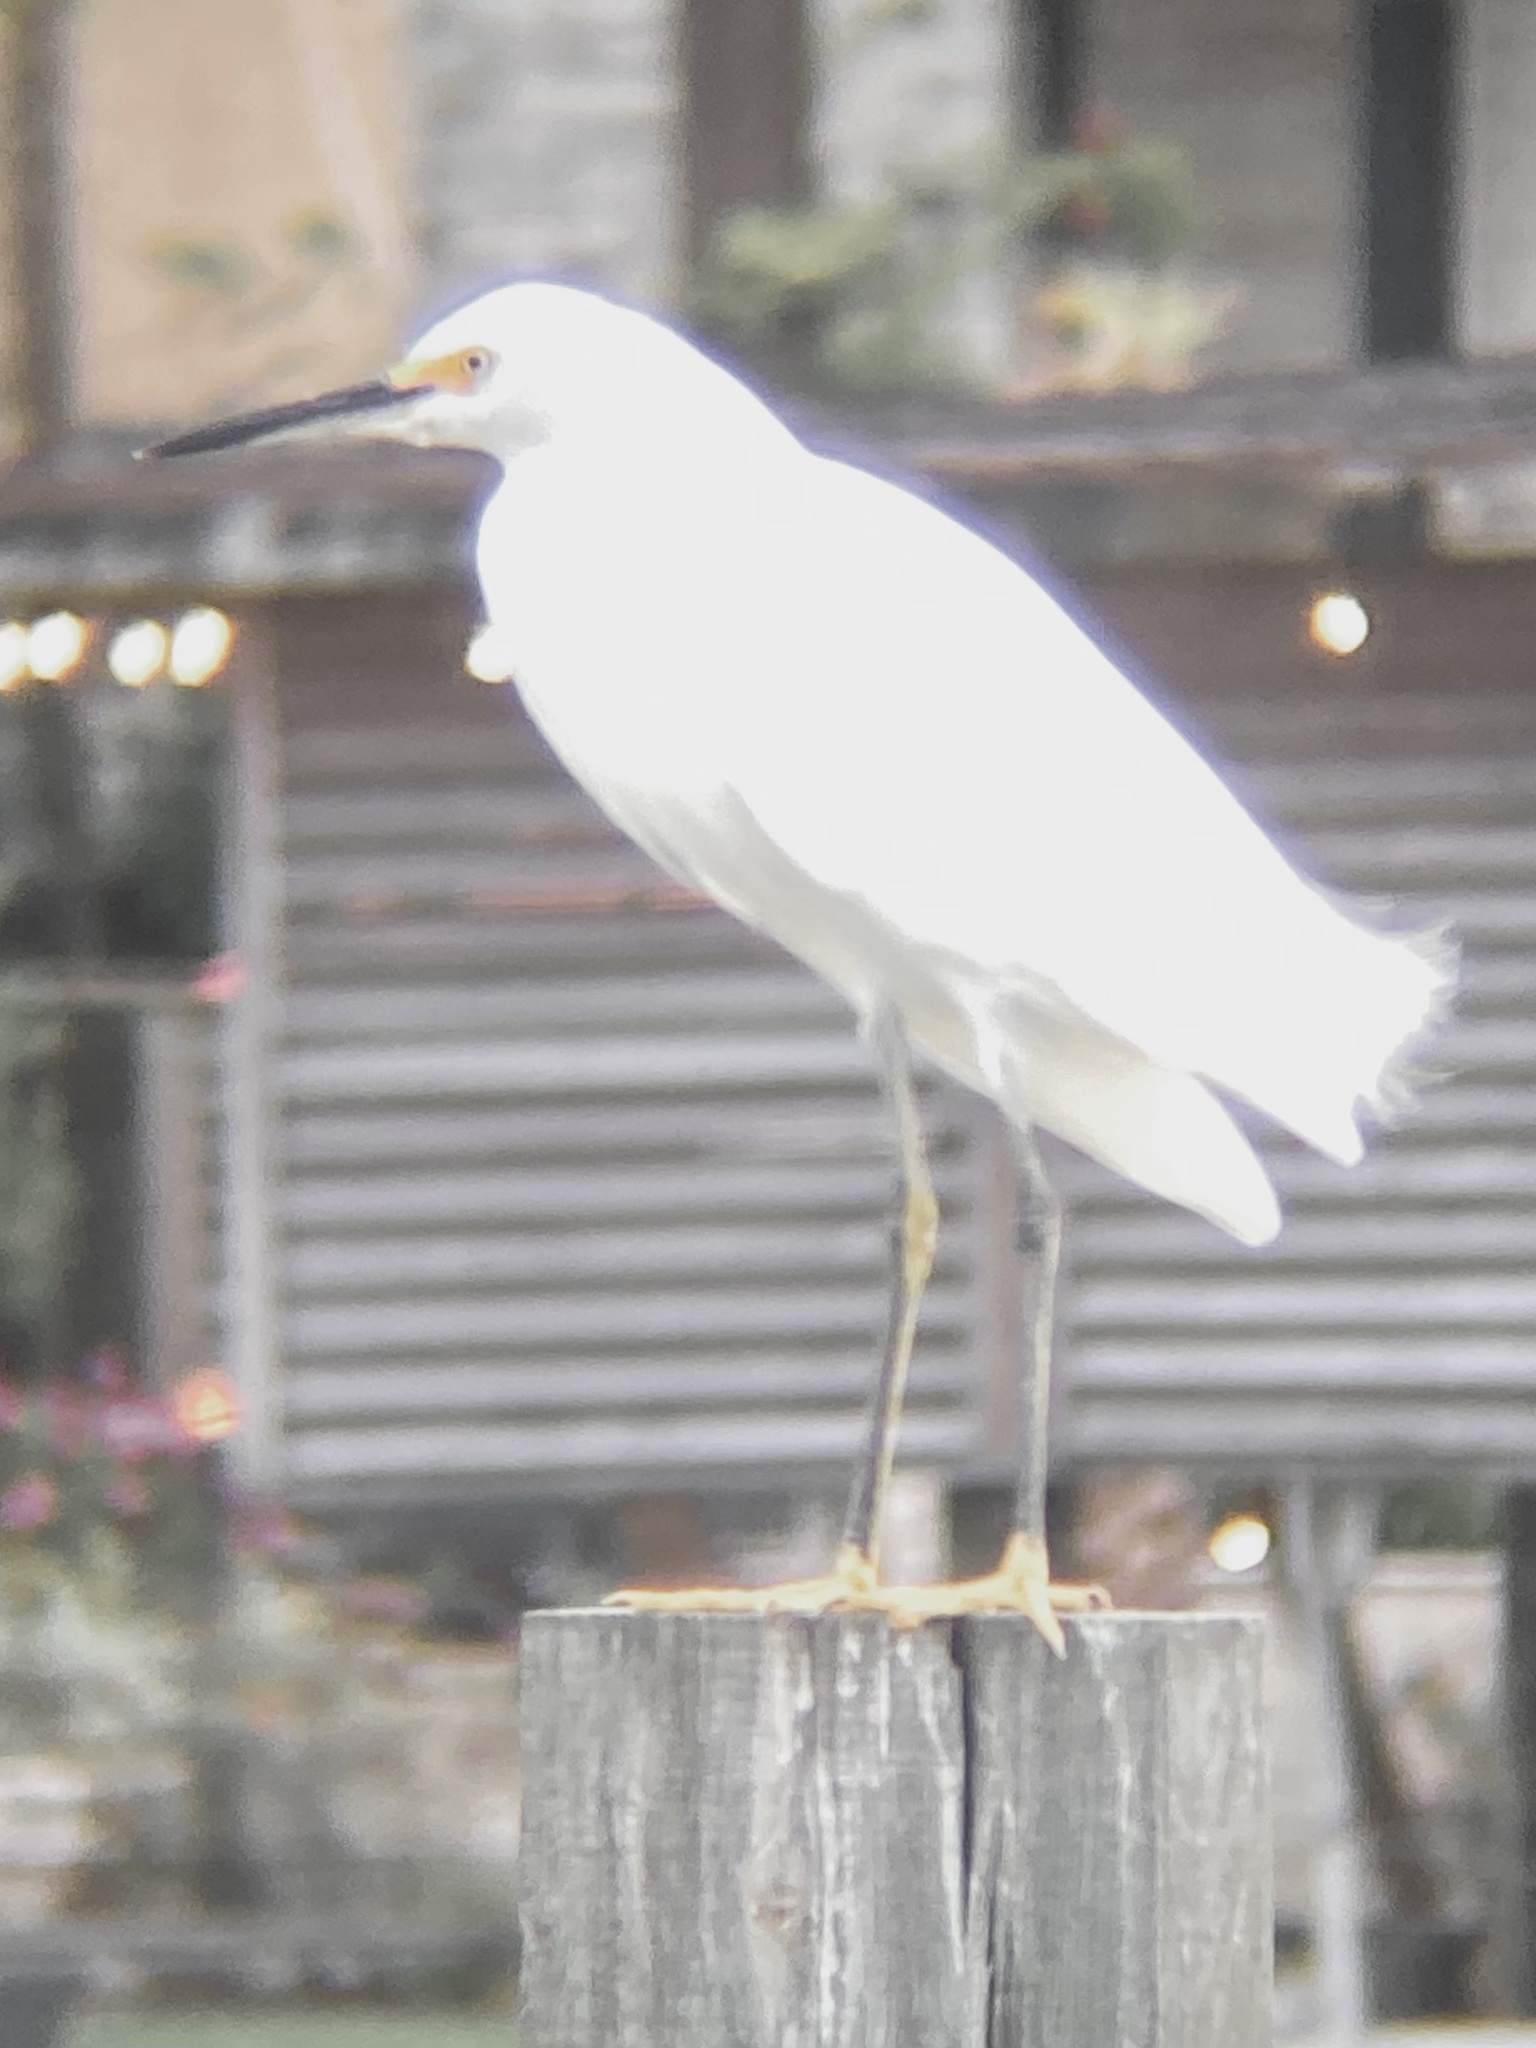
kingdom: Animalia
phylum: Chordata
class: Aves
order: Pelecaniformes
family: Ardeidae
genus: Egretta
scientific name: Egretta thula
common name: Snowy egret
